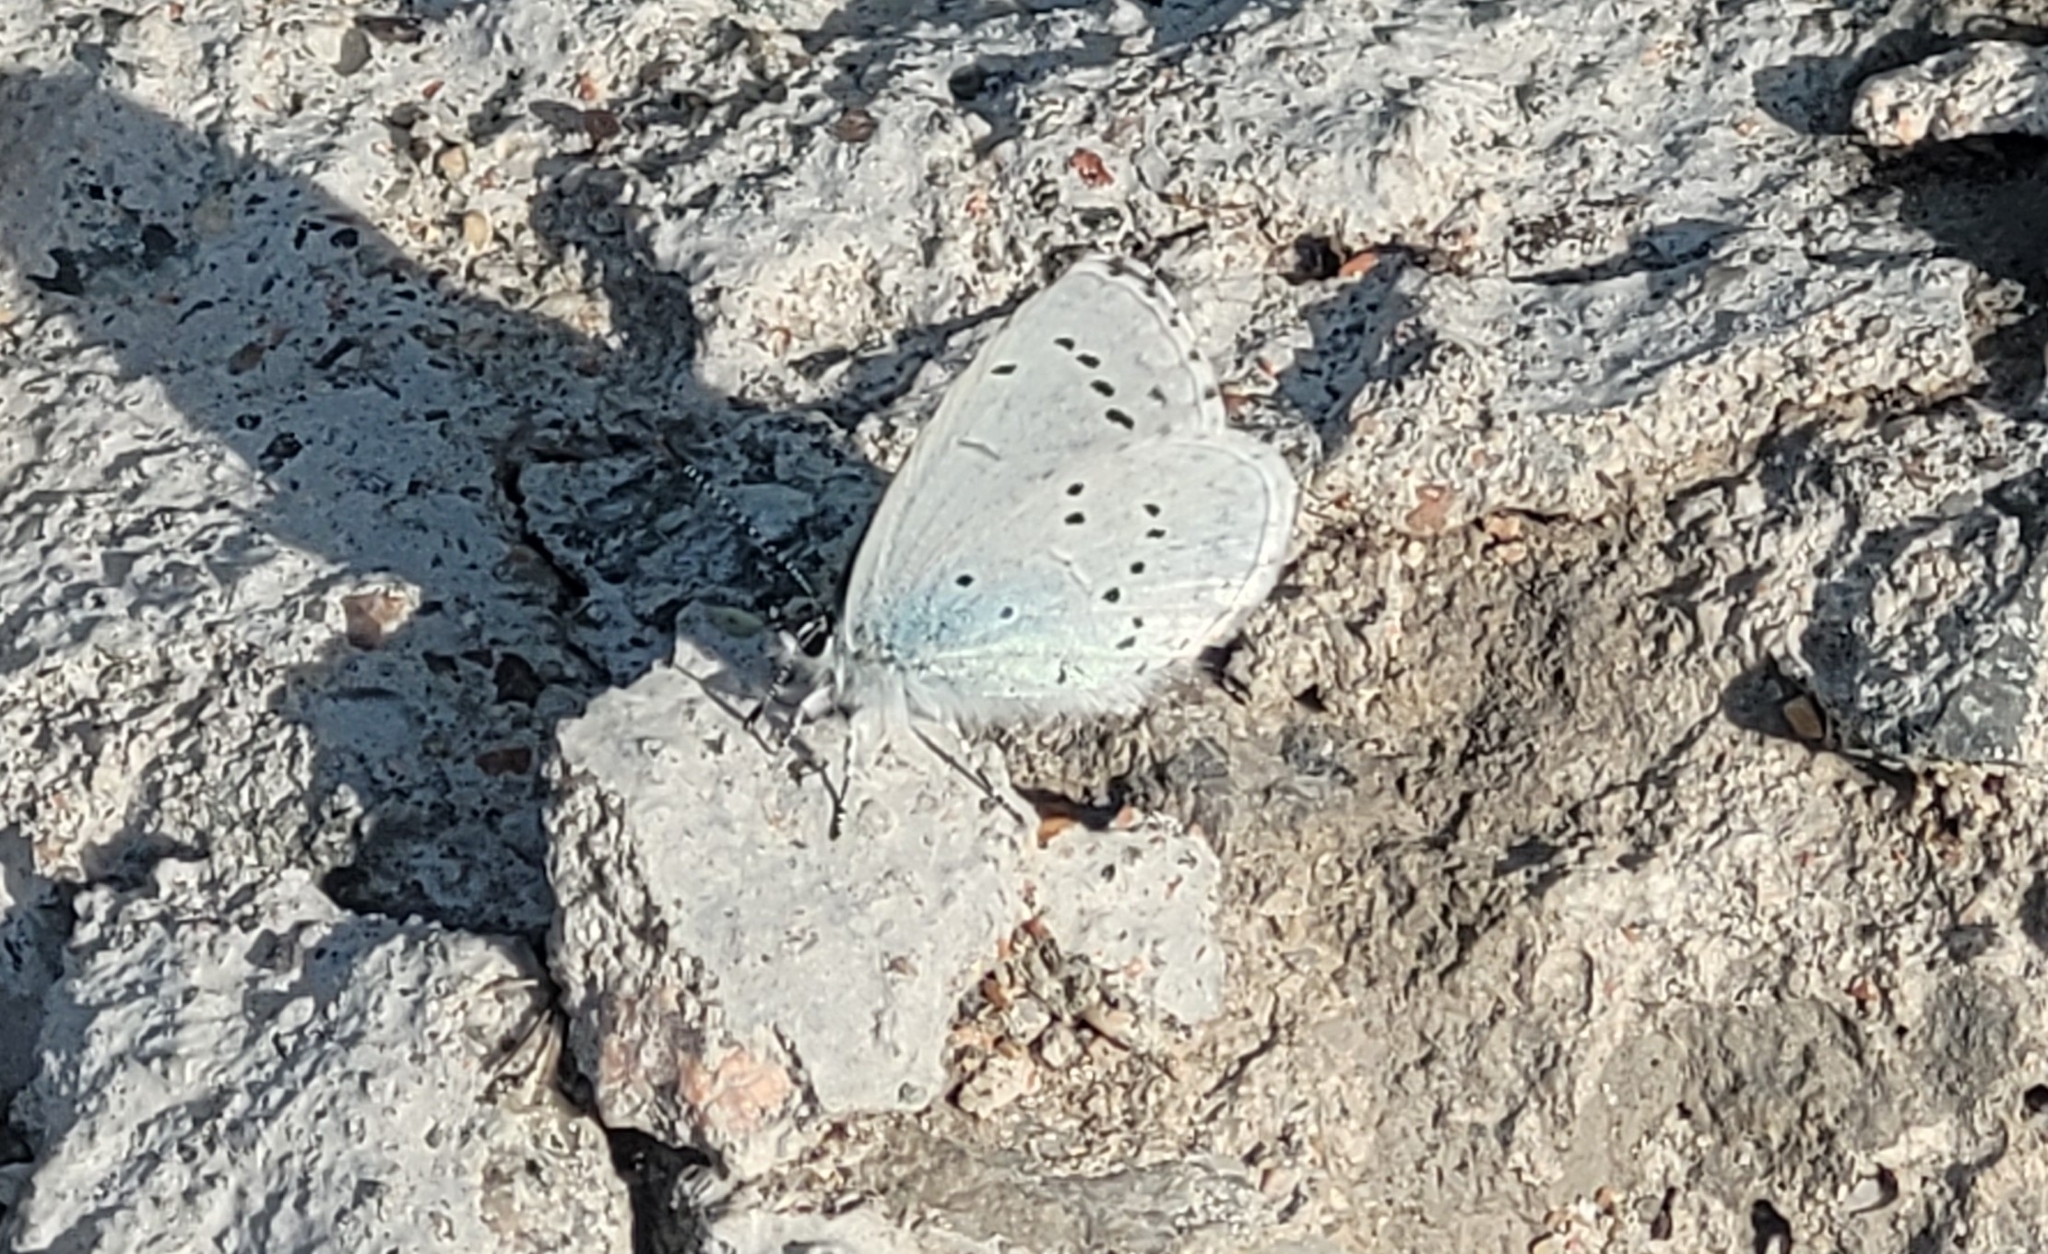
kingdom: Animalia
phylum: Arthropoda
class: Insecta
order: Lepidoptera
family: Lycaenidae
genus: Celastrina
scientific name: Celastrina argiolus
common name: Holly blue
